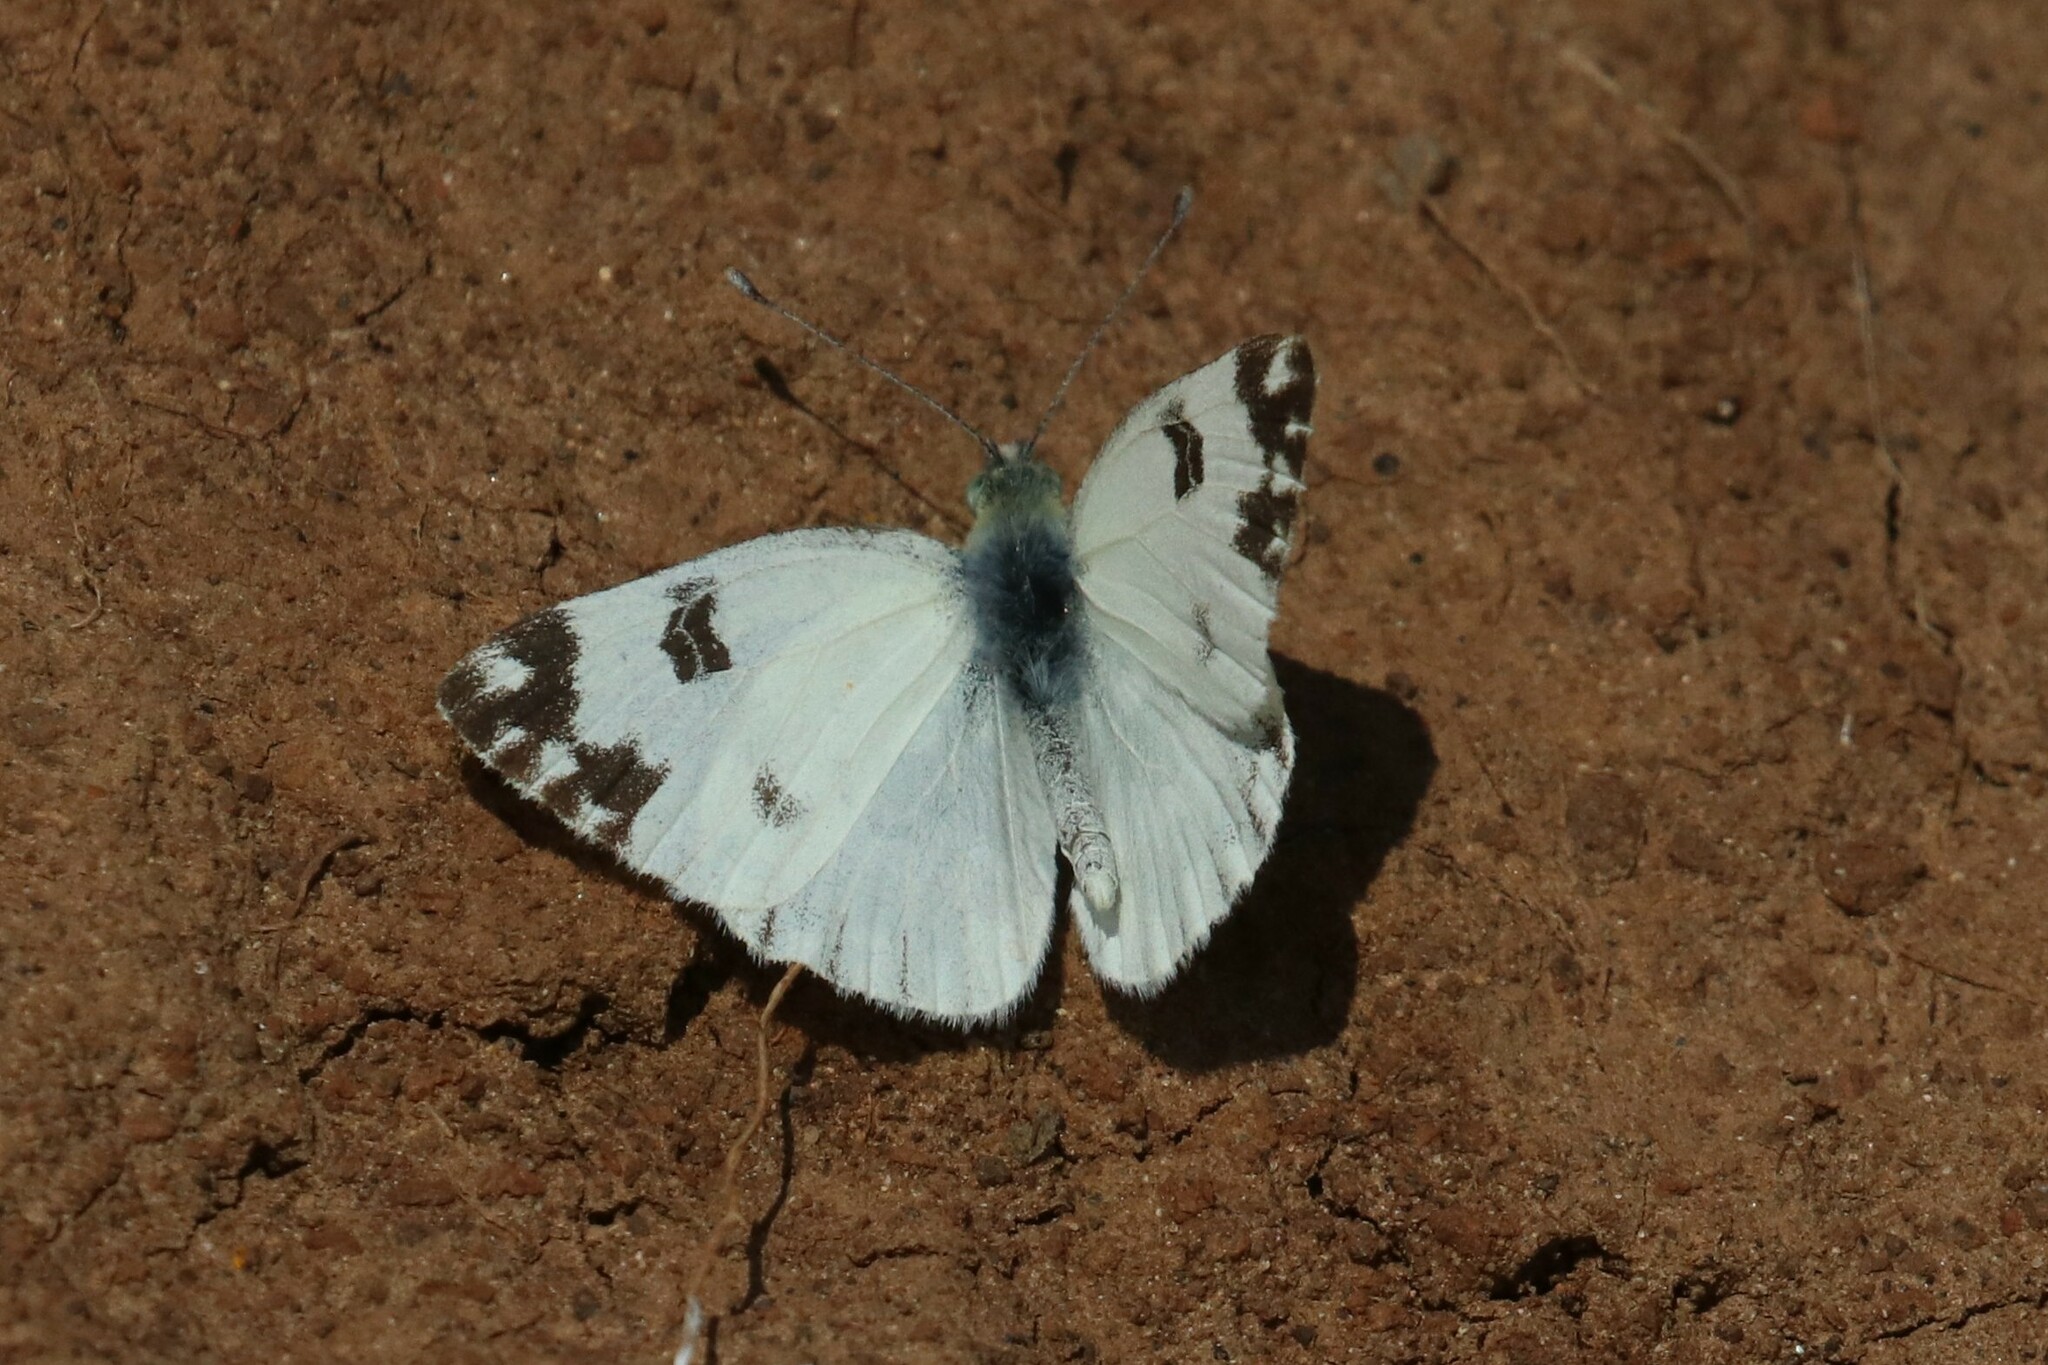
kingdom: Animalia
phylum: Arthropoda
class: Insecta
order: Lepidoptera
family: Pieridae
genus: Pontia
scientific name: Pontia edusa
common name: Eastern bath white
